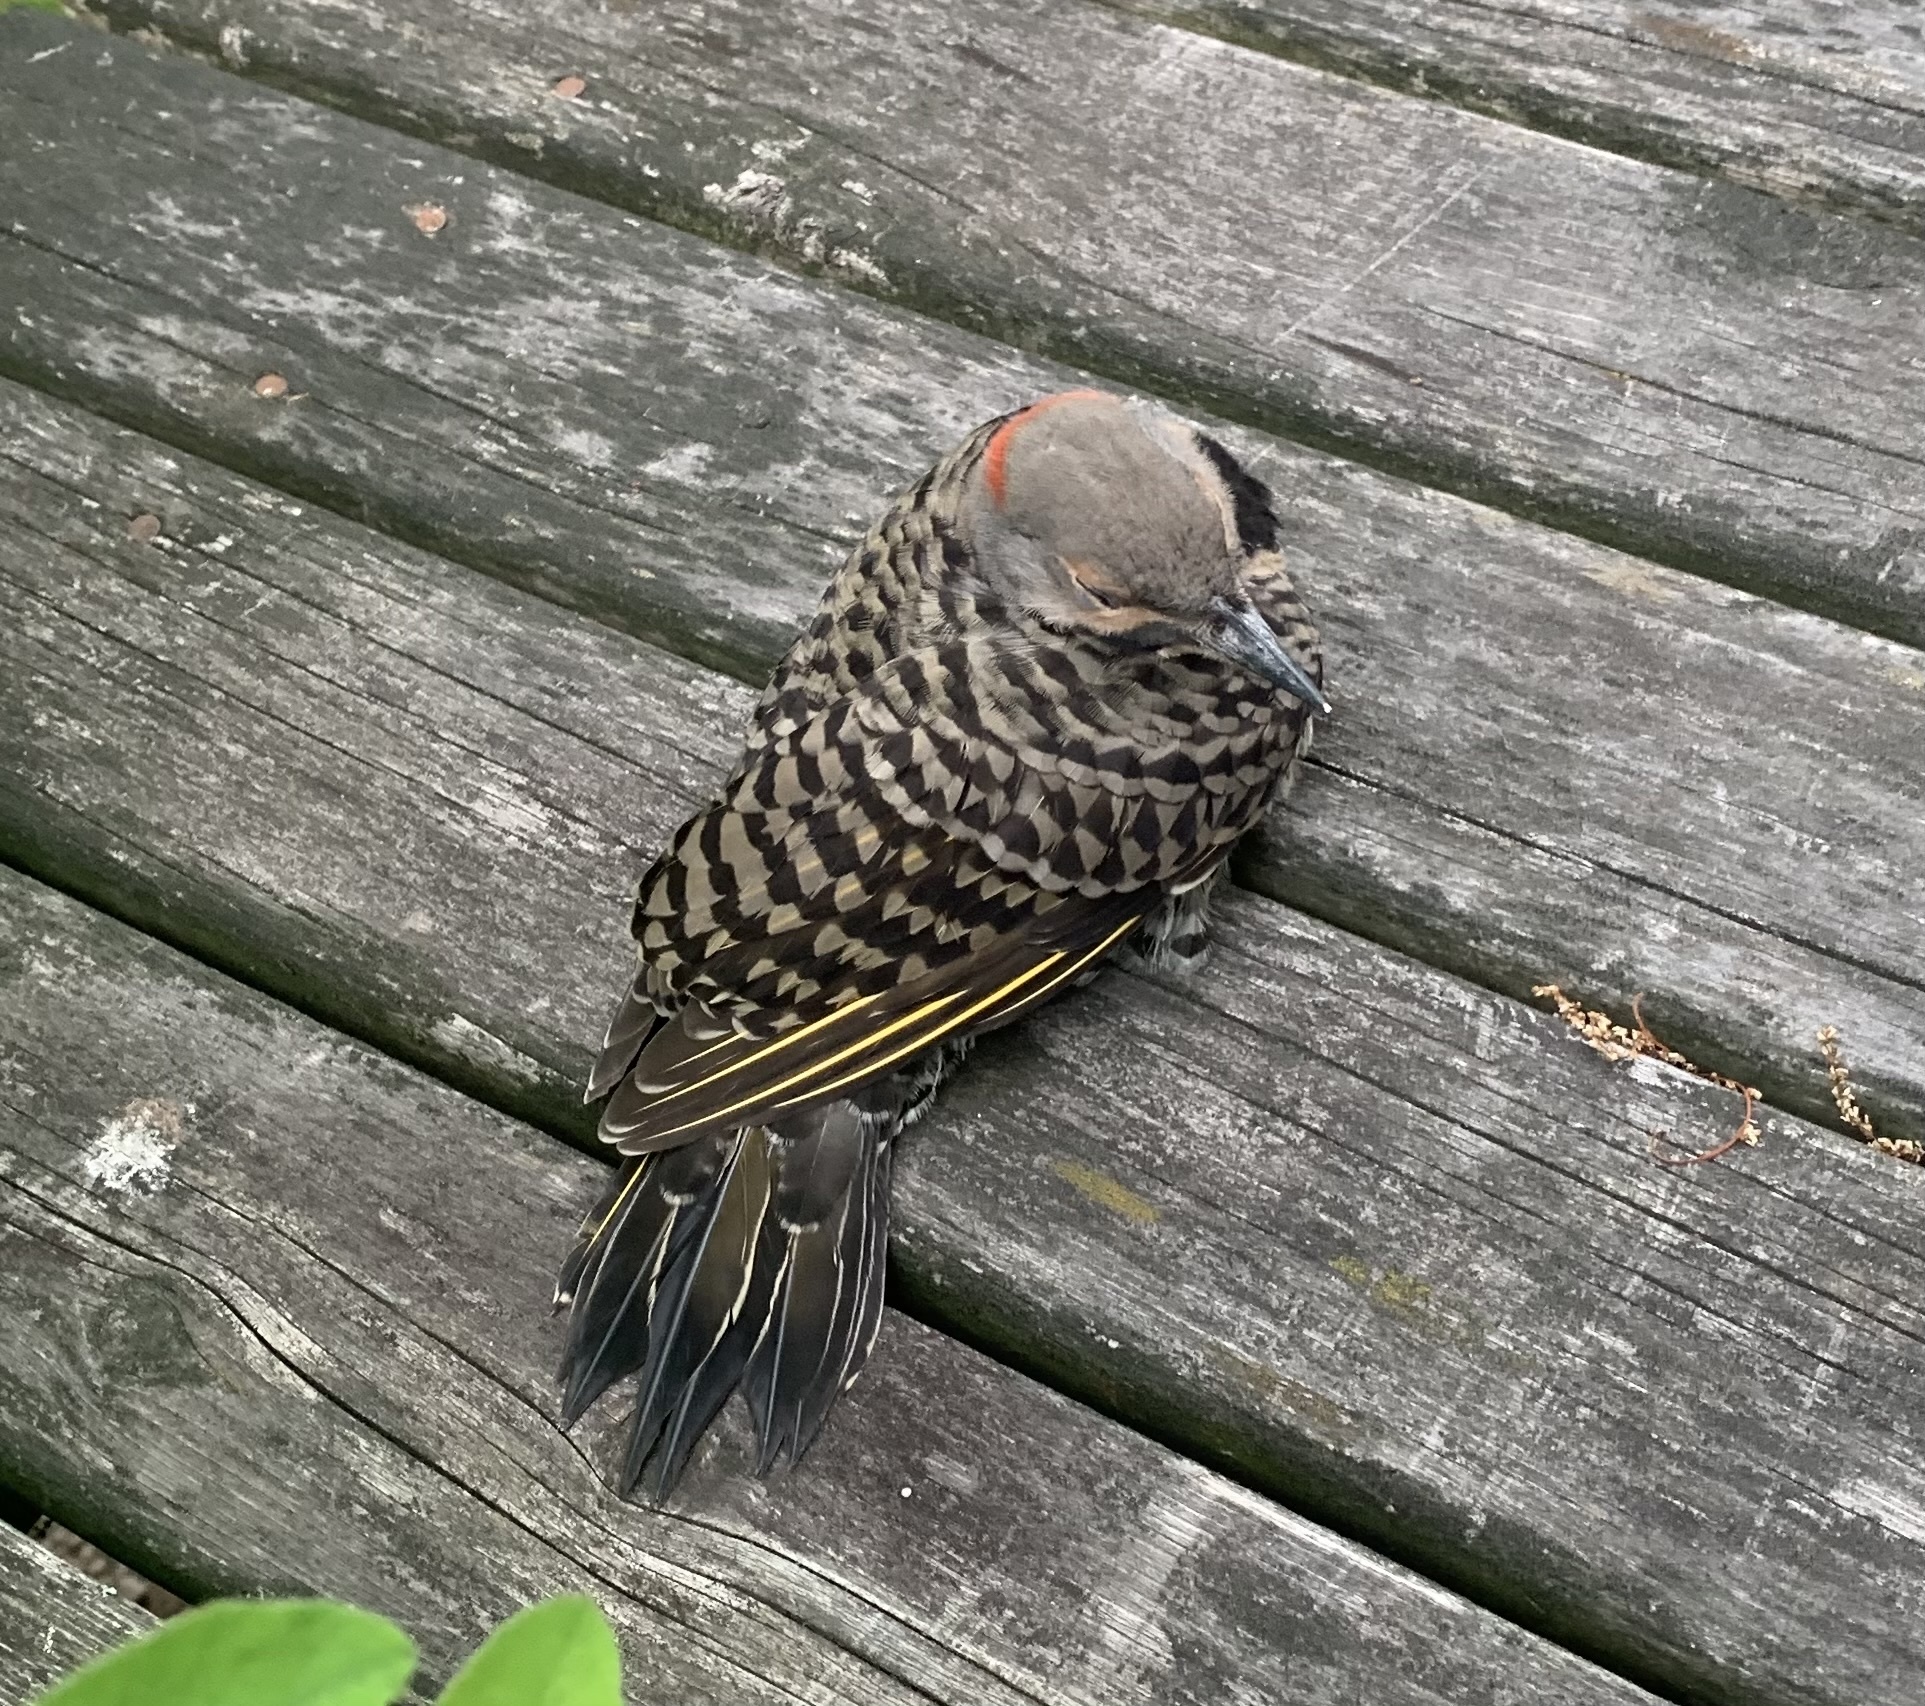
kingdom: Animalia
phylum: Chordata
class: Aves
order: Piciformes
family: Picidae
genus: Colaptes
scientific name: Colaptes auratus
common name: Northern flicker
